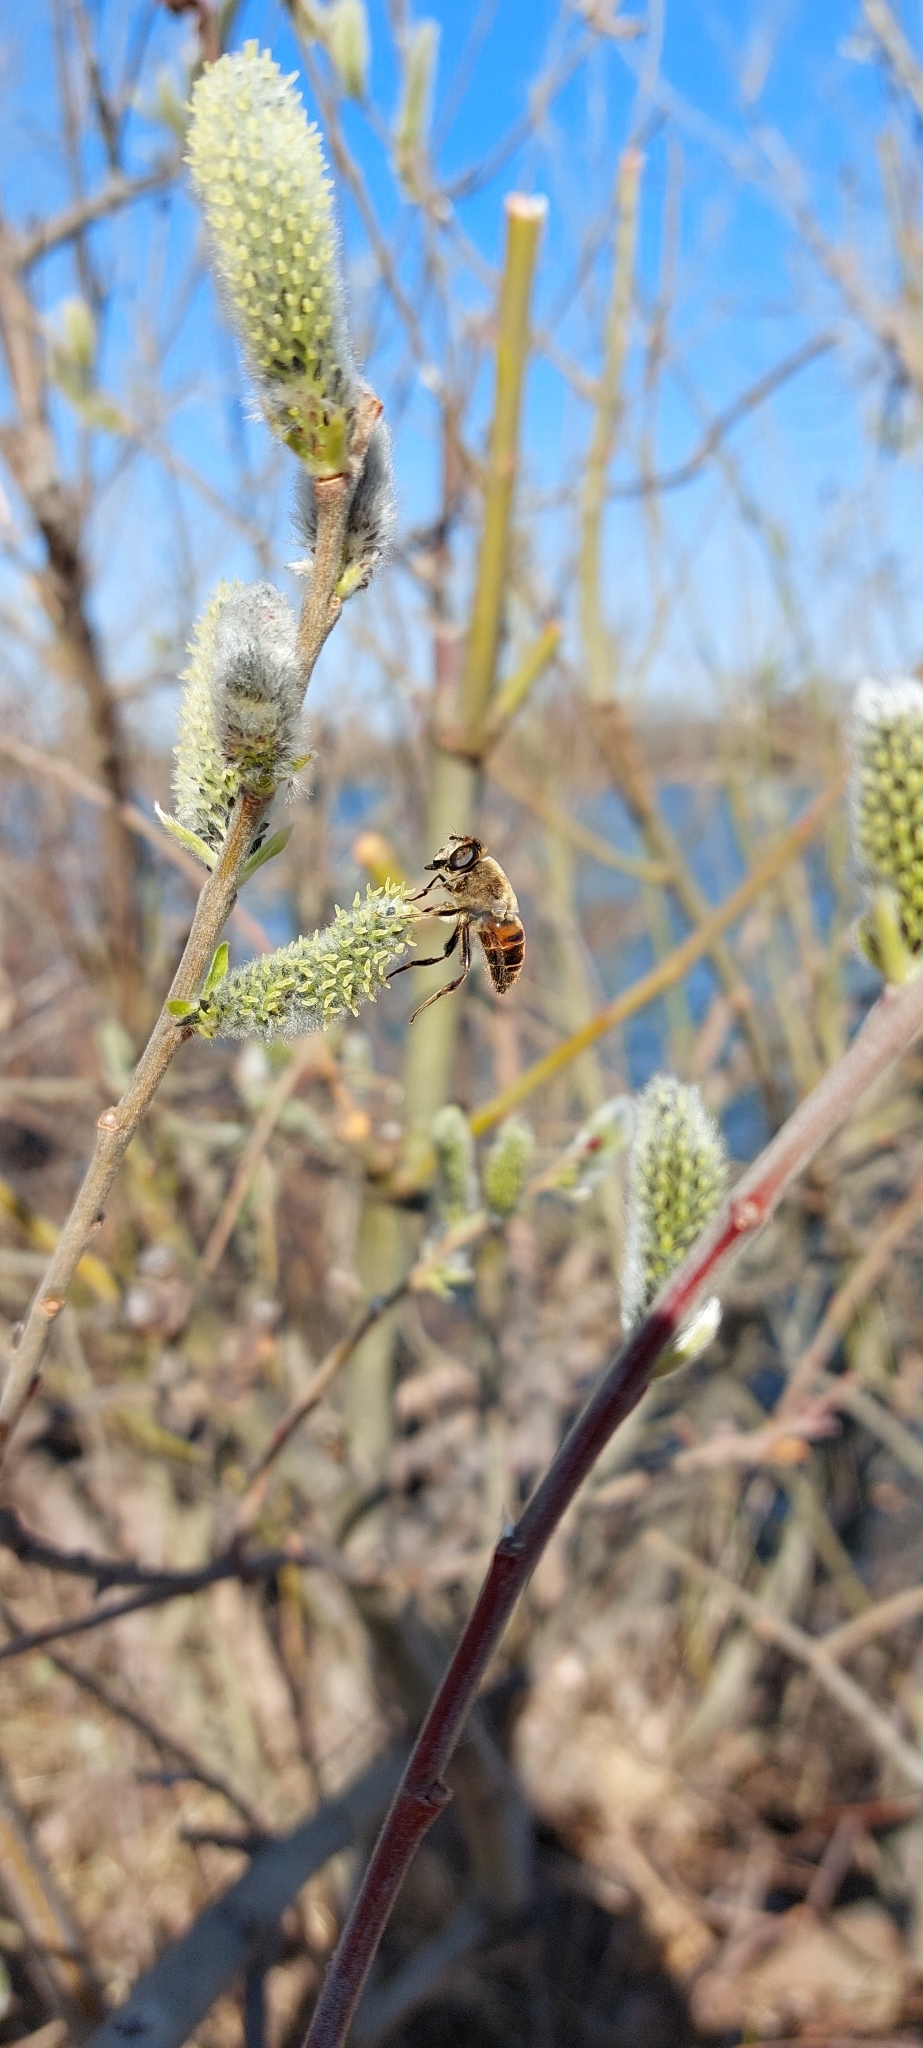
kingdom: Animalia
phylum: Arthropoda
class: Insecta
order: Diptera
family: Syrphidae
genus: Eristalis
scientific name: Eristalis tenax
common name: Drone fly
